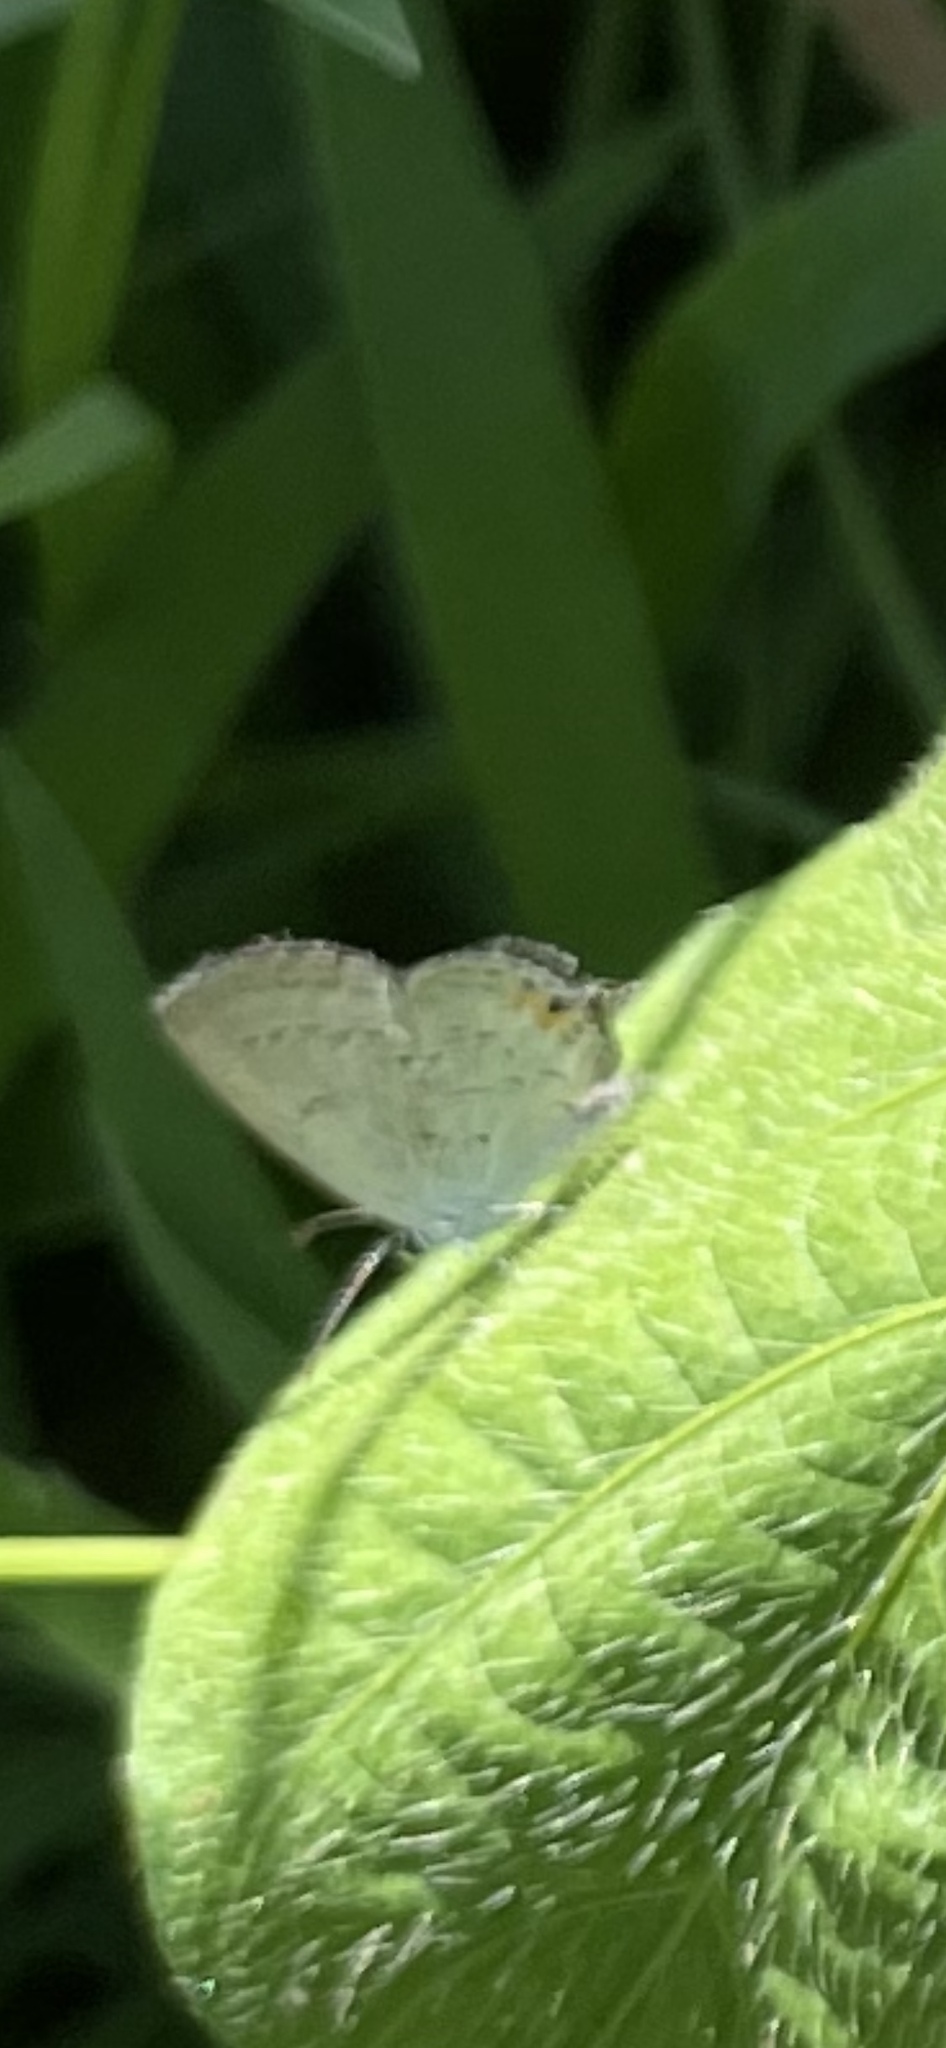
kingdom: Animalia
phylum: Arthropoda
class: Insecta
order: Lepidoptera
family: Lycaenidae
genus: Elkalyce
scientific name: Elkalyce comyntas
